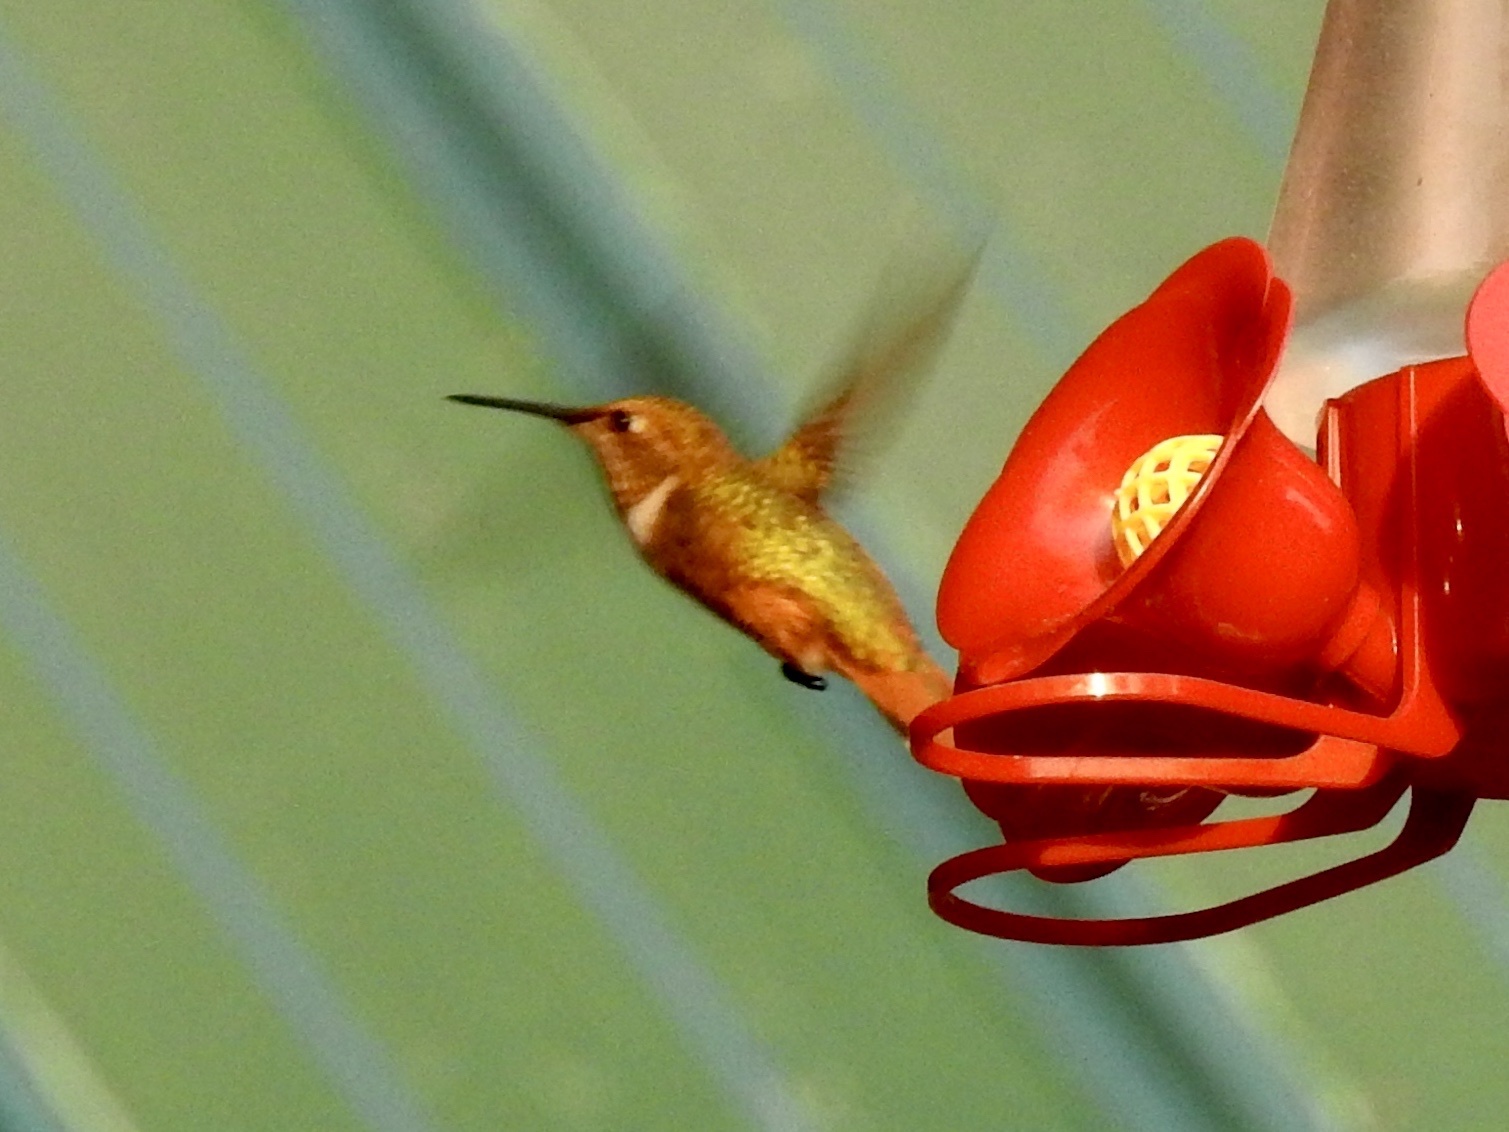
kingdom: Animalia
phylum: Chordata
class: Aves
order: Apodiformes
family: Trochilidae
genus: Selasphorus
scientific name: Selasphorus rufus
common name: Rufous hummingbird
